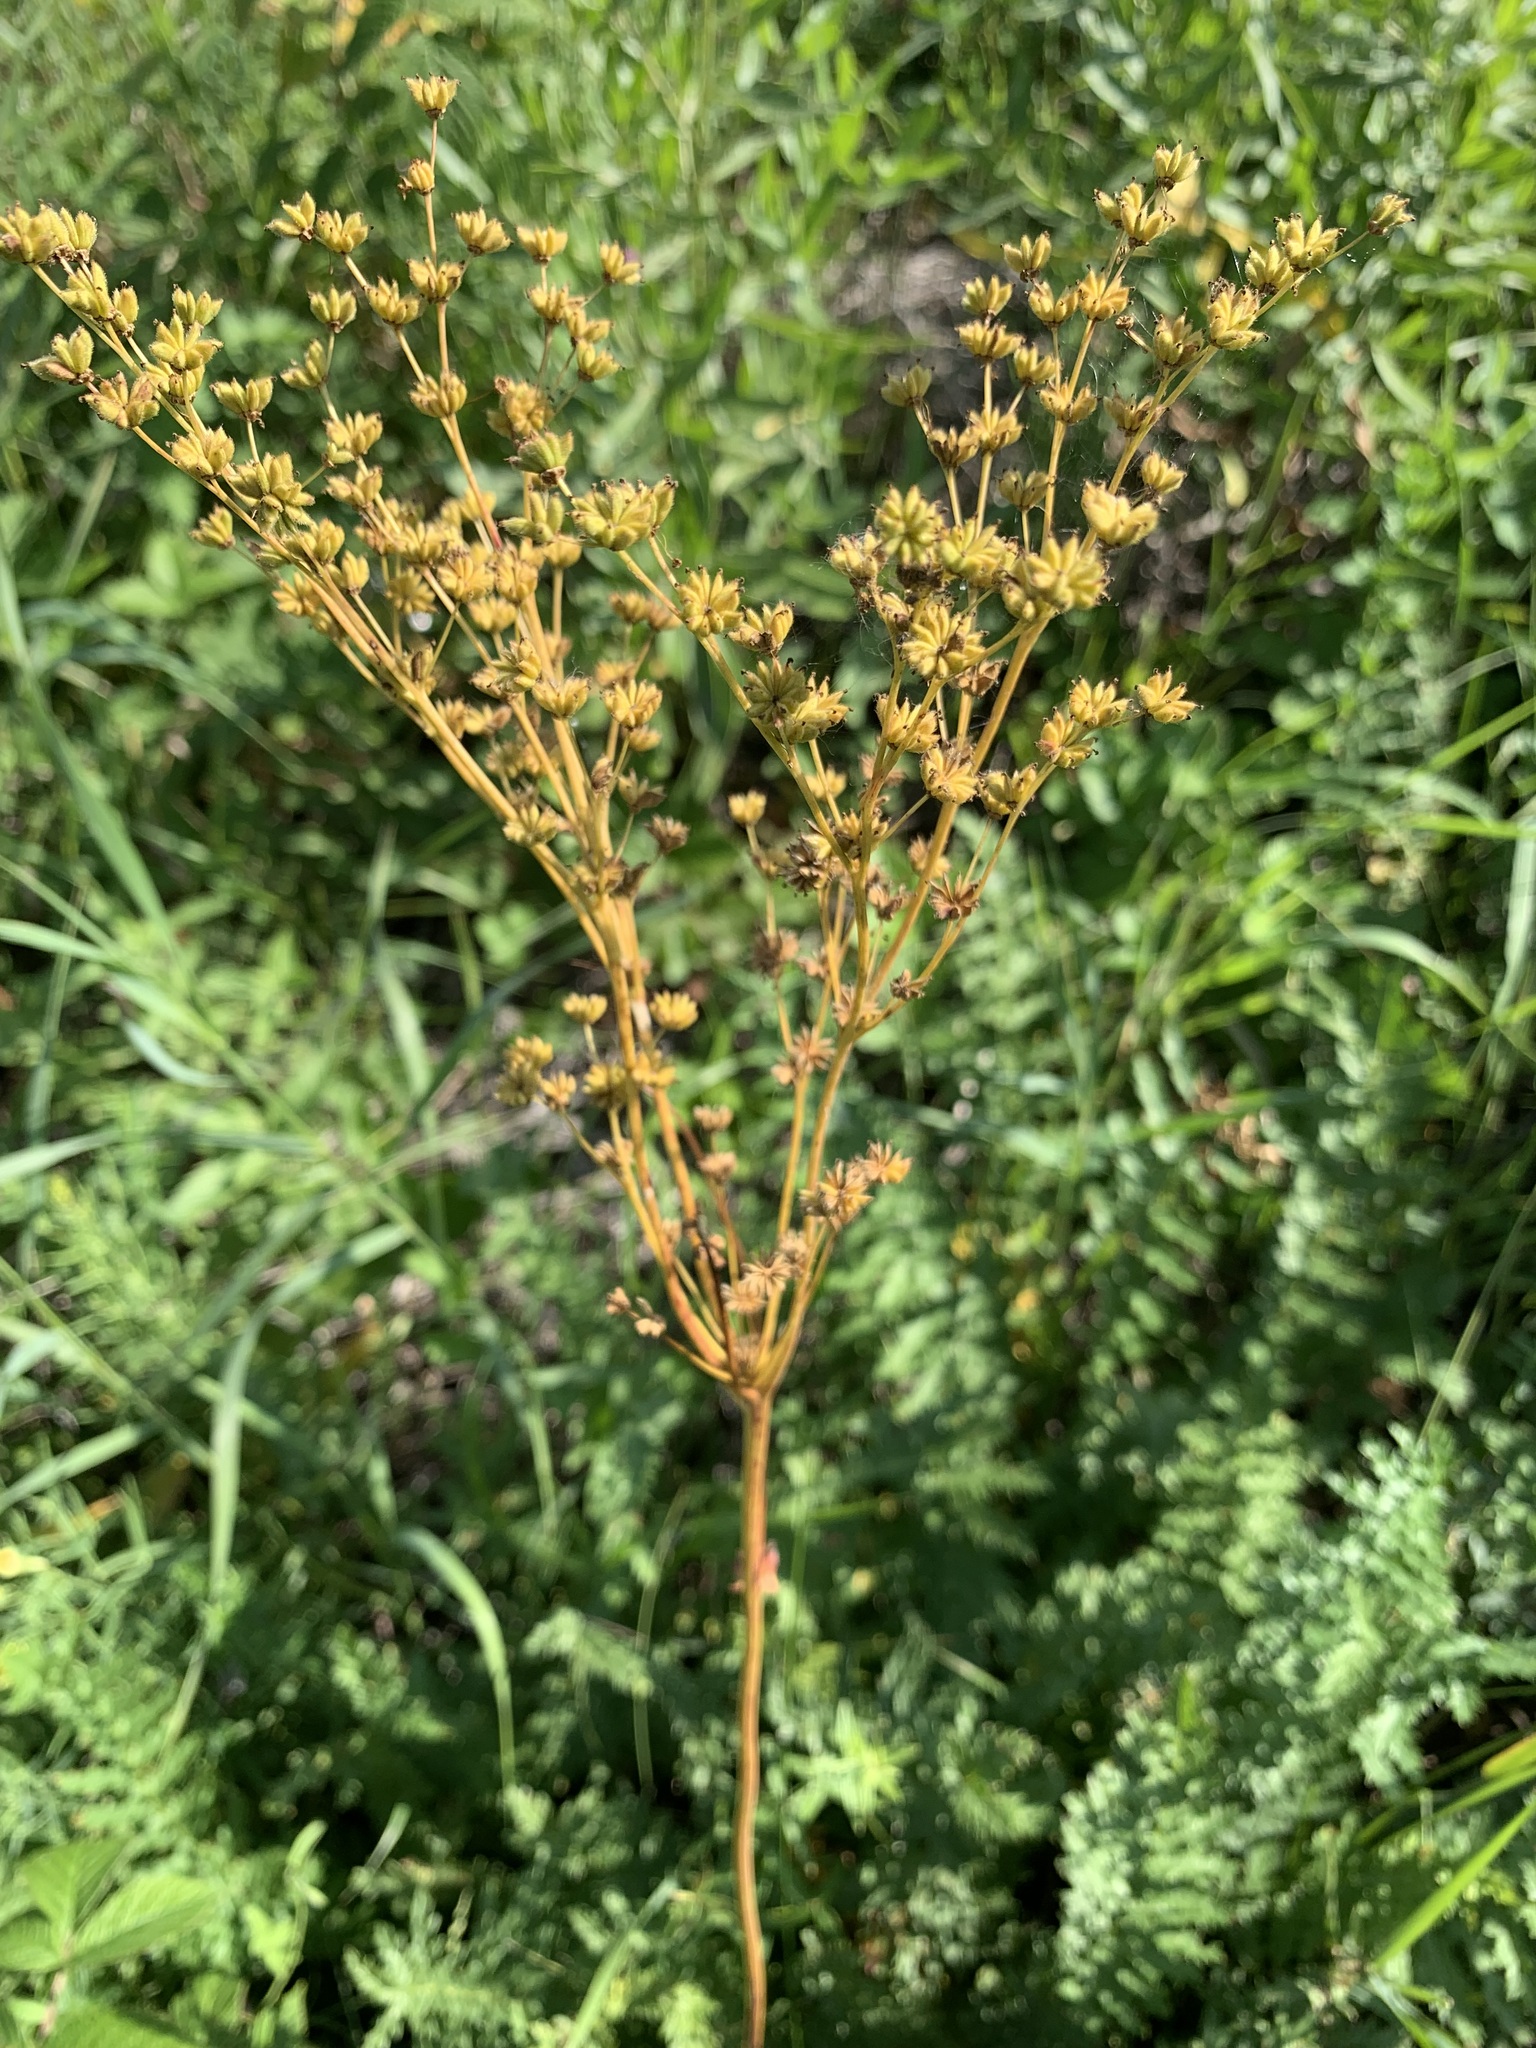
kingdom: Plantae
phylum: Tracheophyta
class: Magnoliopsida
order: Rosales
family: Rosaceae
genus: Filipendula
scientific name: Filipendula vulgaris
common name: Dropwort
